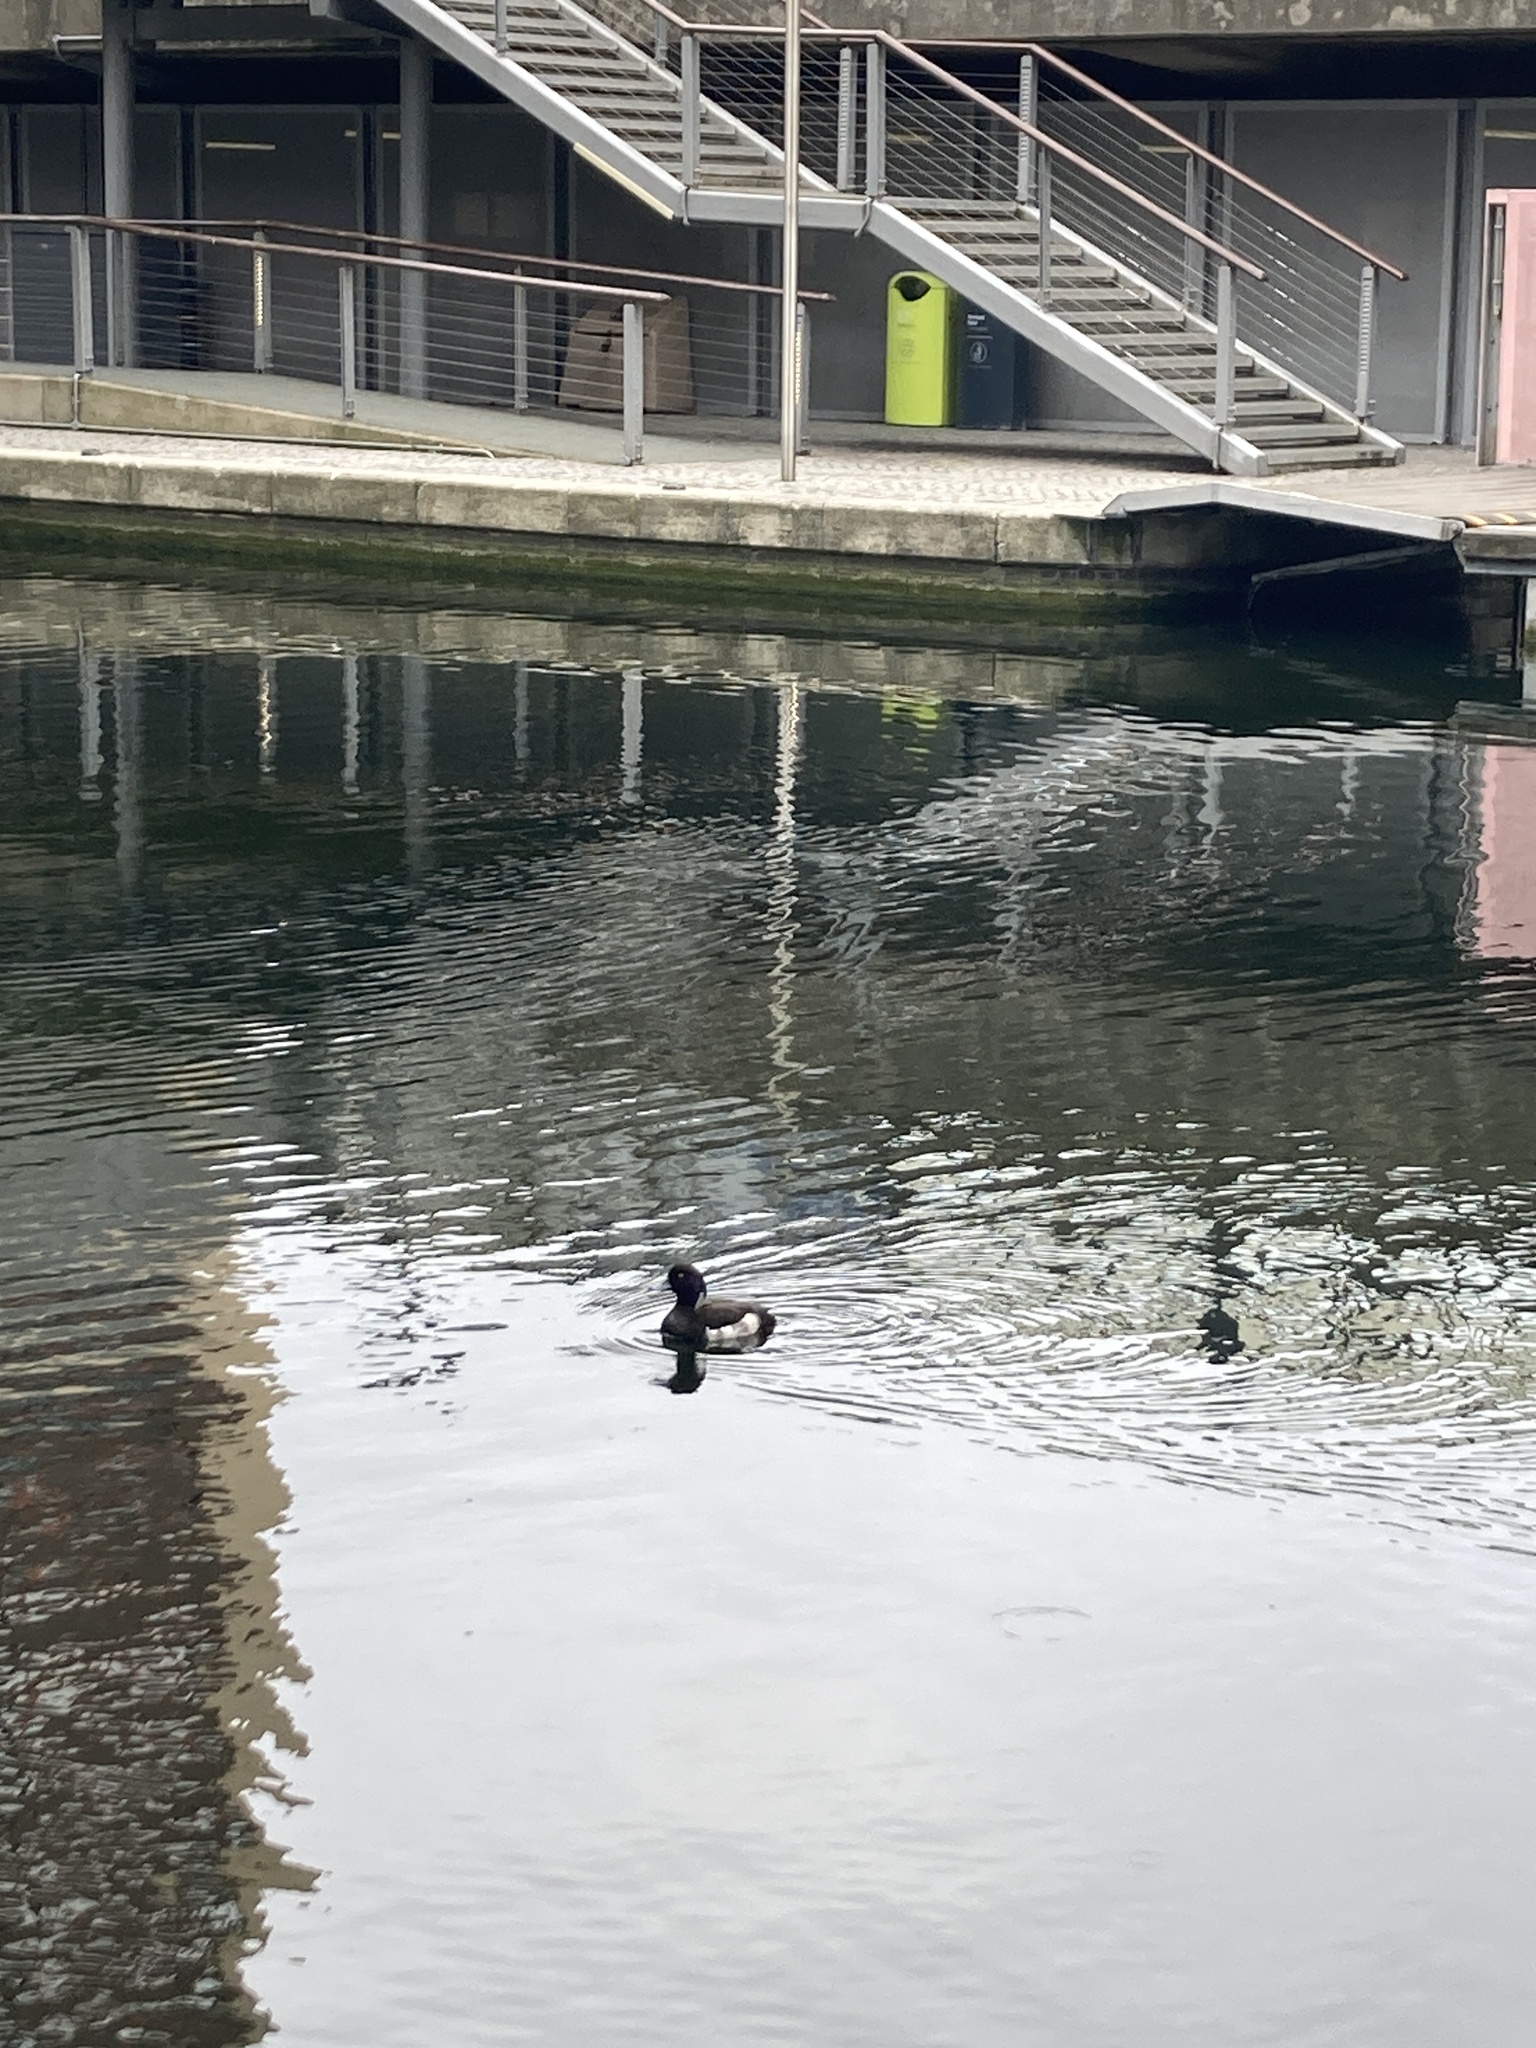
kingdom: Animalia
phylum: Chordata
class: Aves
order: Anseriformes
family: Anatidae
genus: Aythya
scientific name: Aythya fuligula
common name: Tufted duck
